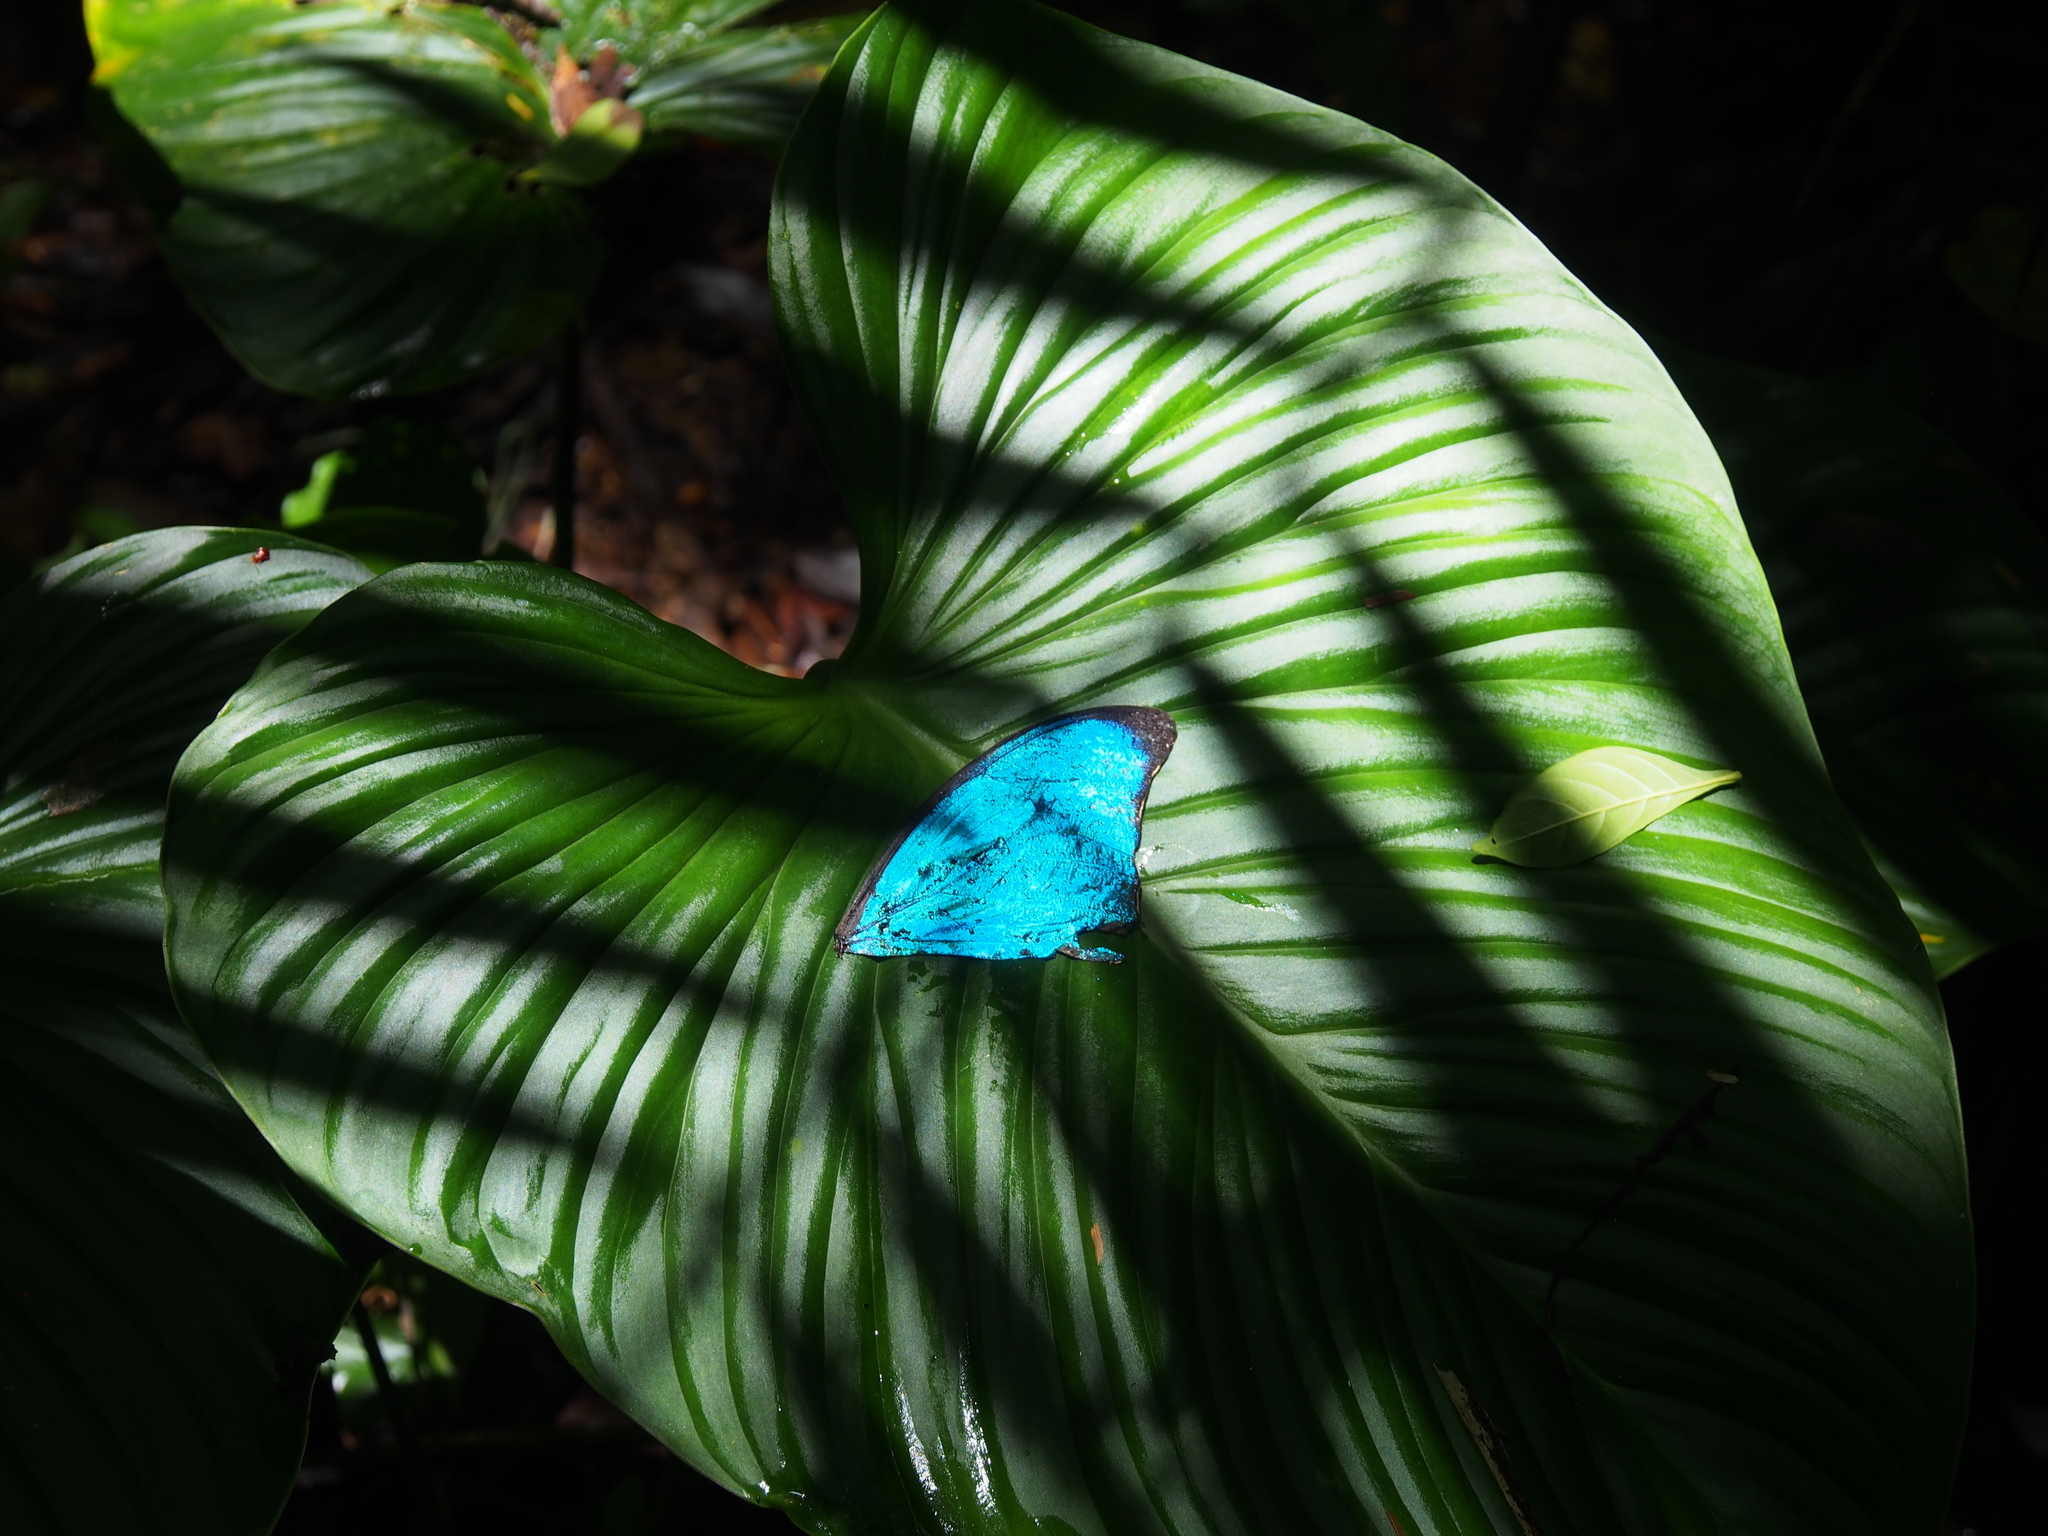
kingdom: Animalia
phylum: Arthropoda
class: Insecta
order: Lepidoptera
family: Nymphalidae
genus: Morpho
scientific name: Morpho amathonte
